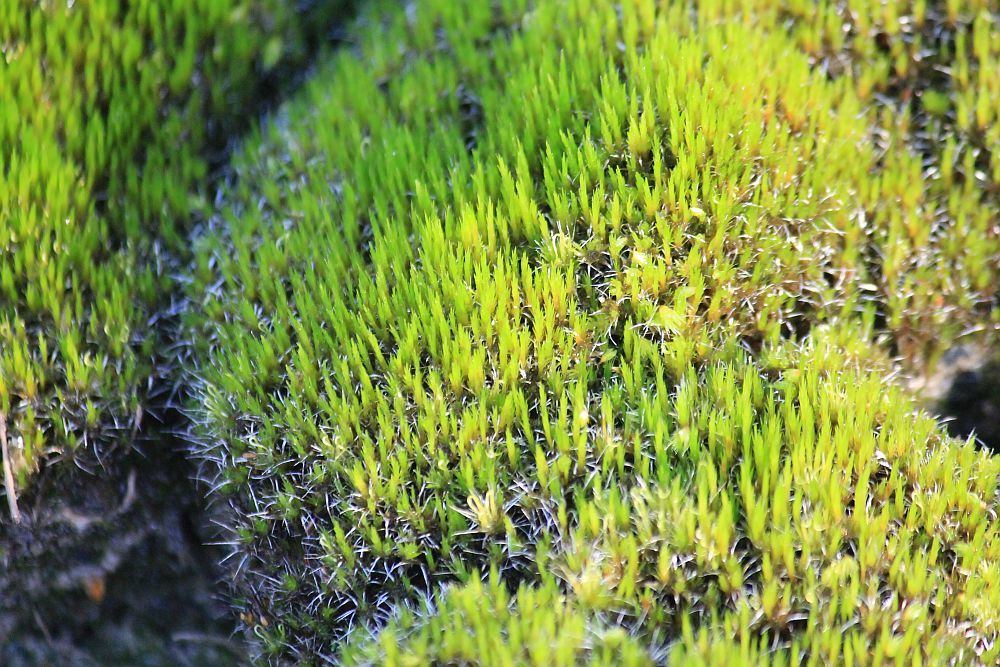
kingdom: Plantae
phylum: Bryophyta
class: Bryopsida
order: Dicranales
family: Leucobryaceae
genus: Campylopus
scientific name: Campylopus introflexus
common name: Heath star moss
